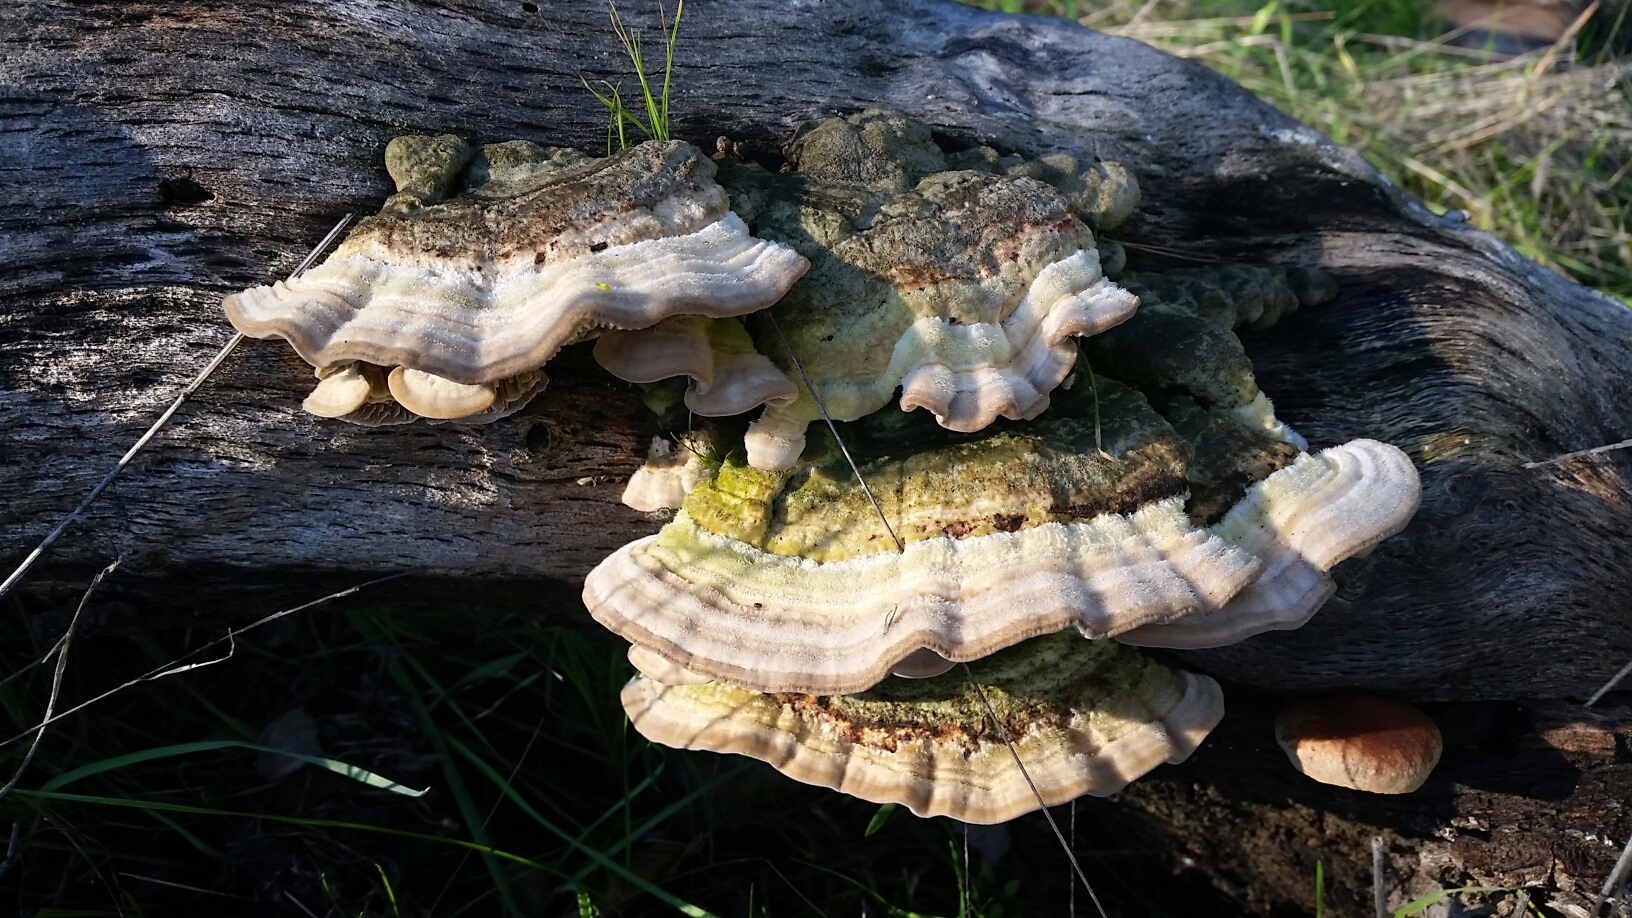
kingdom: Fungi
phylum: Basidiomycota
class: Agaricomycetes
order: Polyporales
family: Polyporaceae
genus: Lenzites
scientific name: Lenzites betulinus
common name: Birch mazegill
